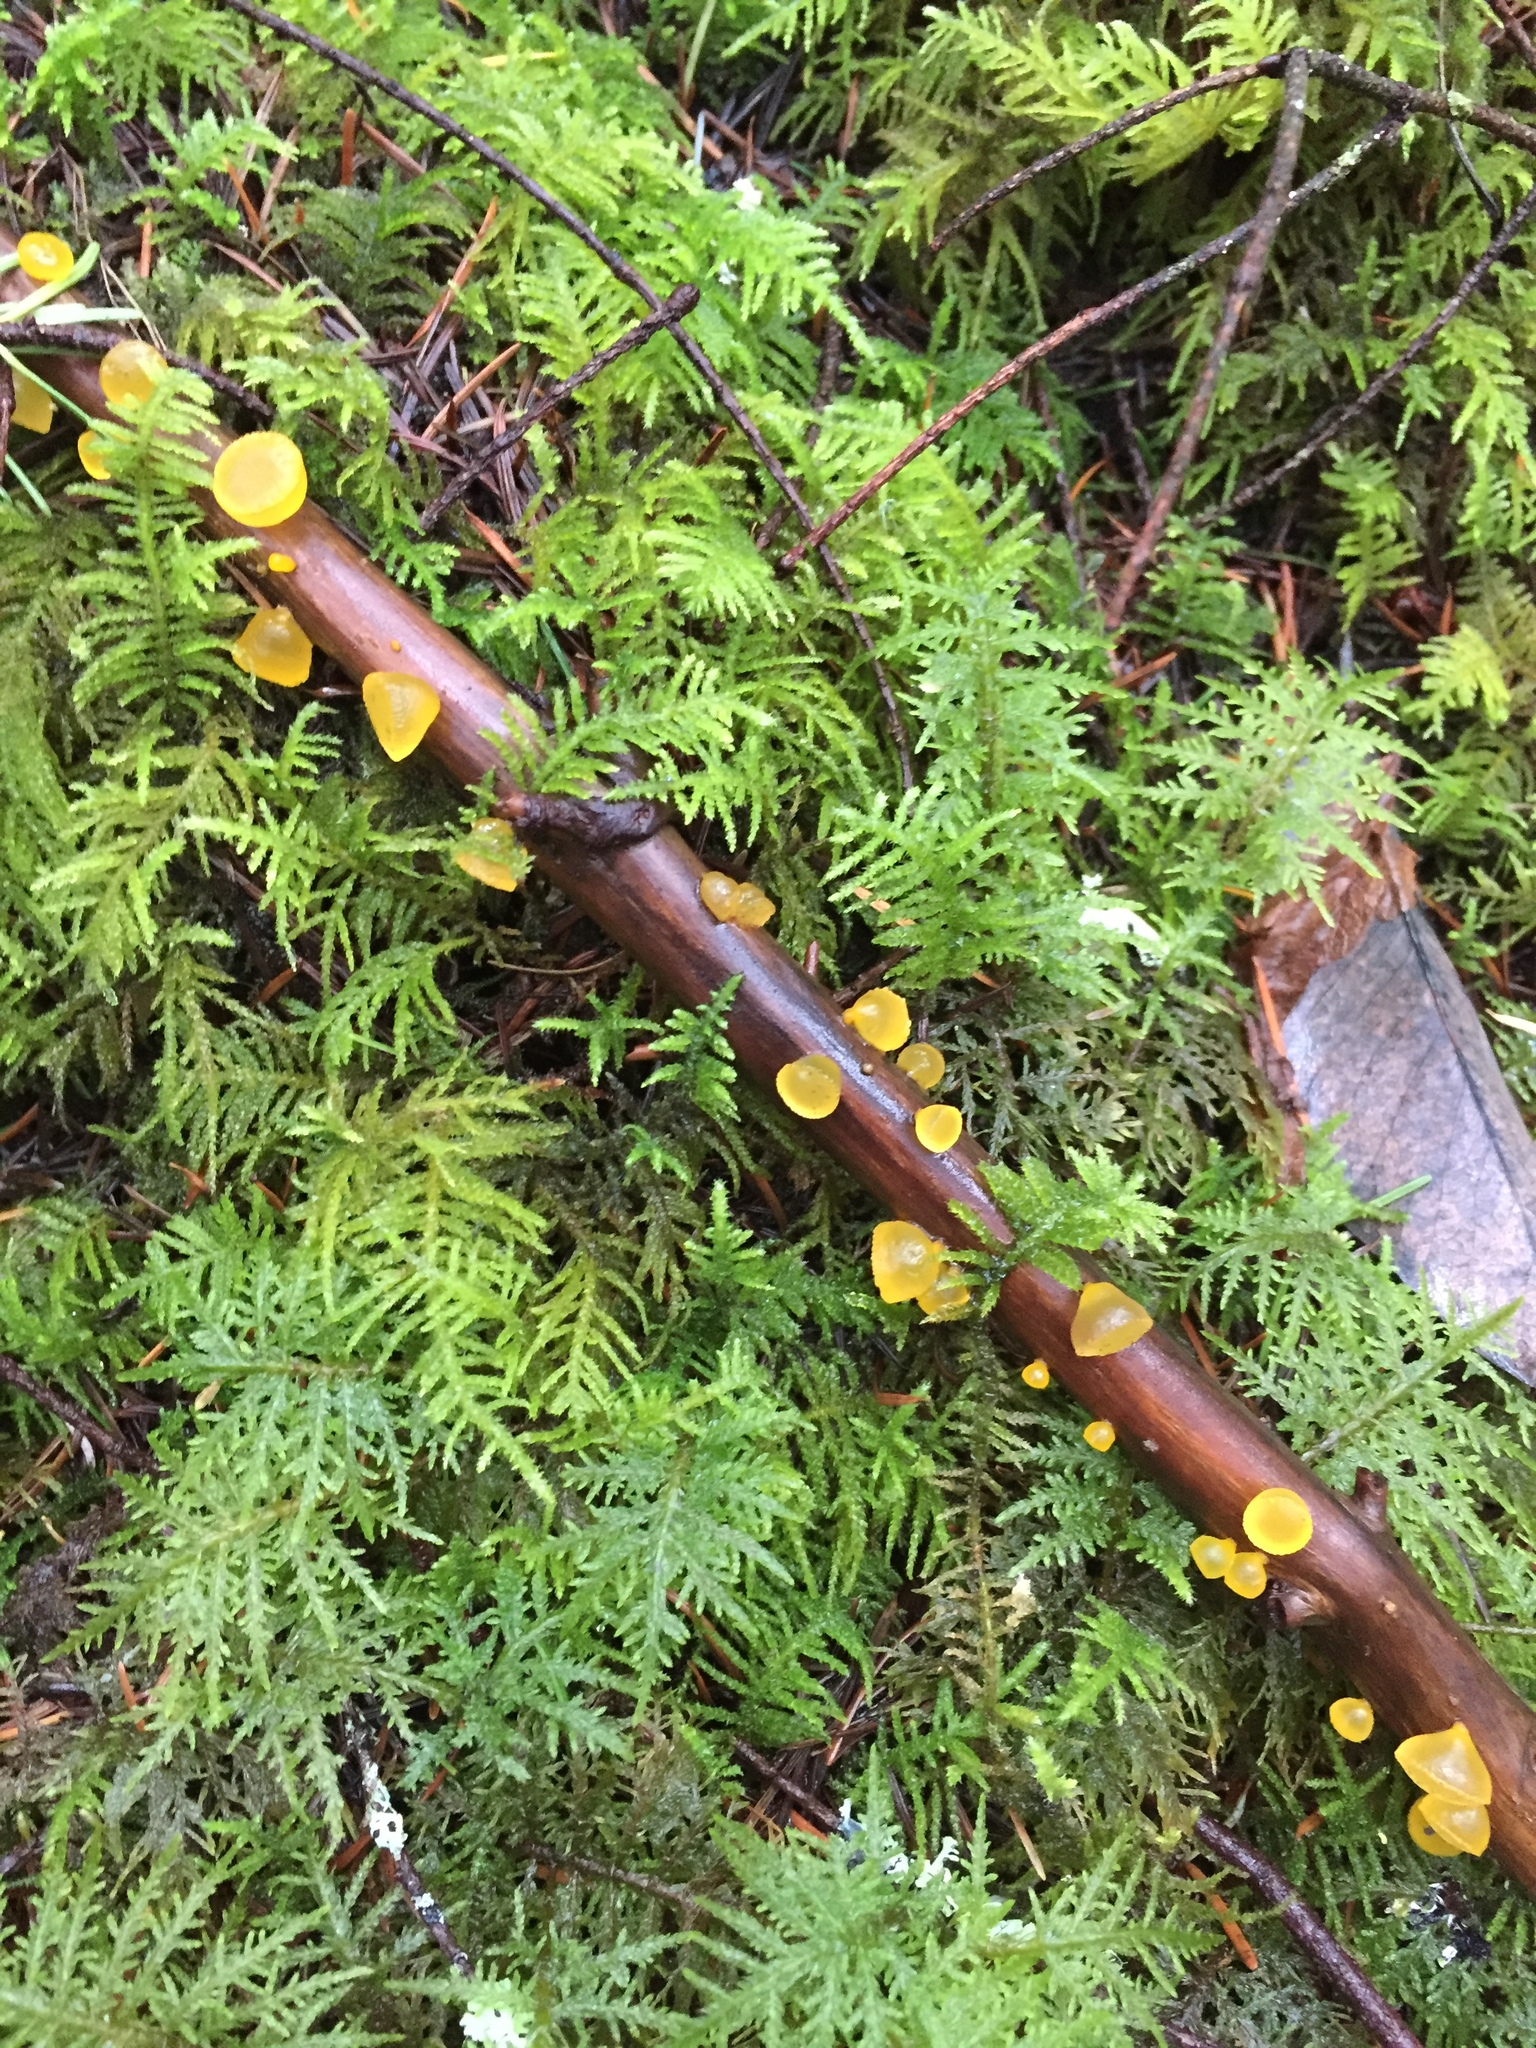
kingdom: Fungi
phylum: Basidiomycota
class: Dacrymycetes
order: Dacrymycetales
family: Dacrymycetaceae
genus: Guepiniopsis
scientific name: Guepiniopsis alpina
